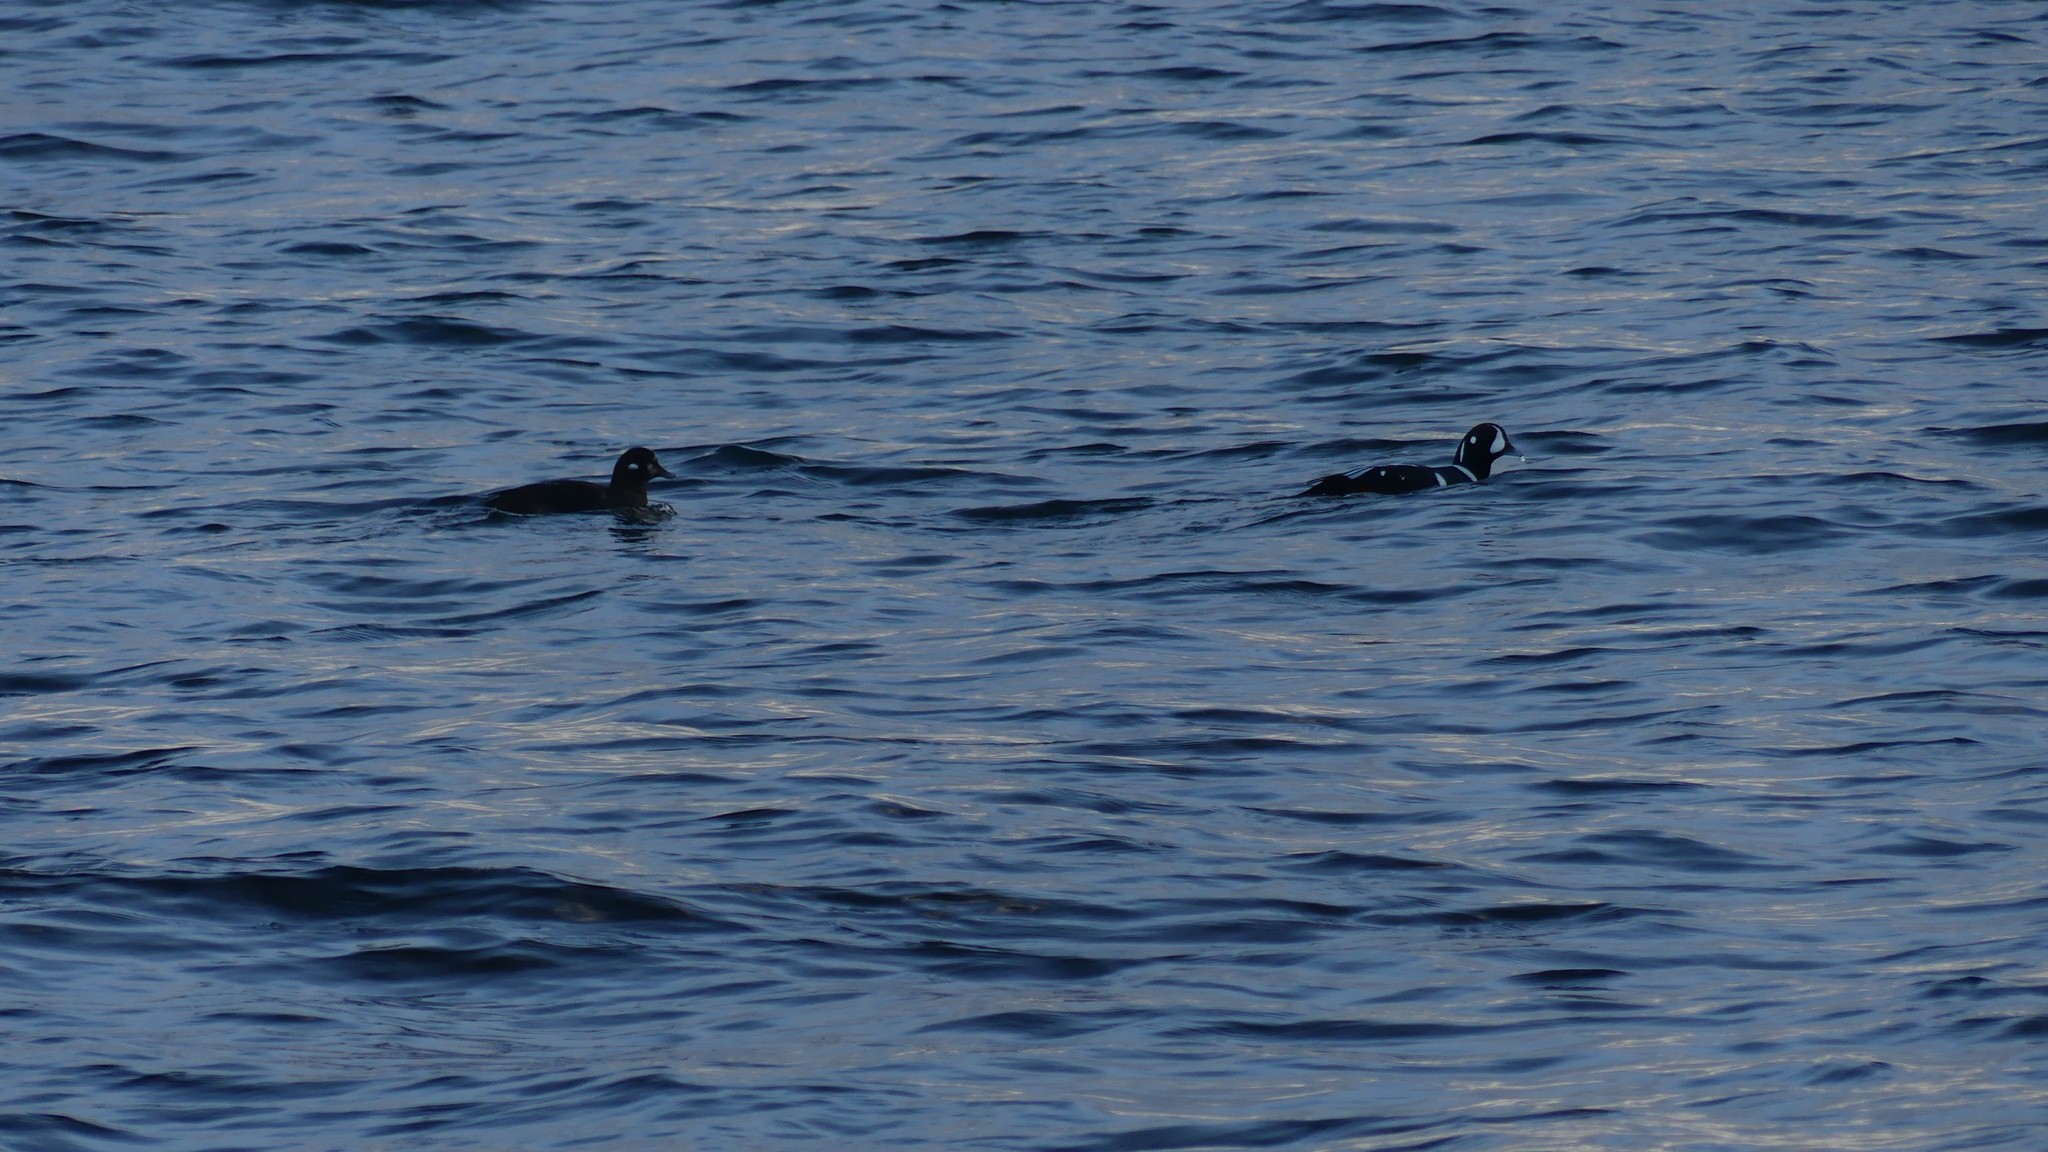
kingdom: Animalia
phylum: Chordata
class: Aves
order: Anseriformes
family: Anatidae
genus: Histrionicus
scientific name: Histrionicus histrionicus
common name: Harlequin duck
